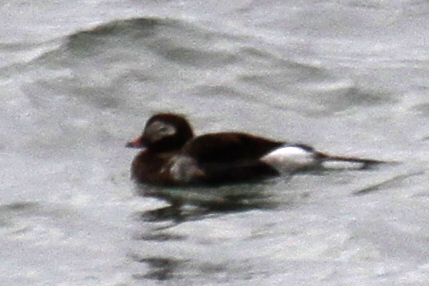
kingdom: Animalia
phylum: Chordata
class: Aves
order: Anseriformes
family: Anatidae
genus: Clangula
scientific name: Clangula hyemalis
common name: Long-tailed duck
